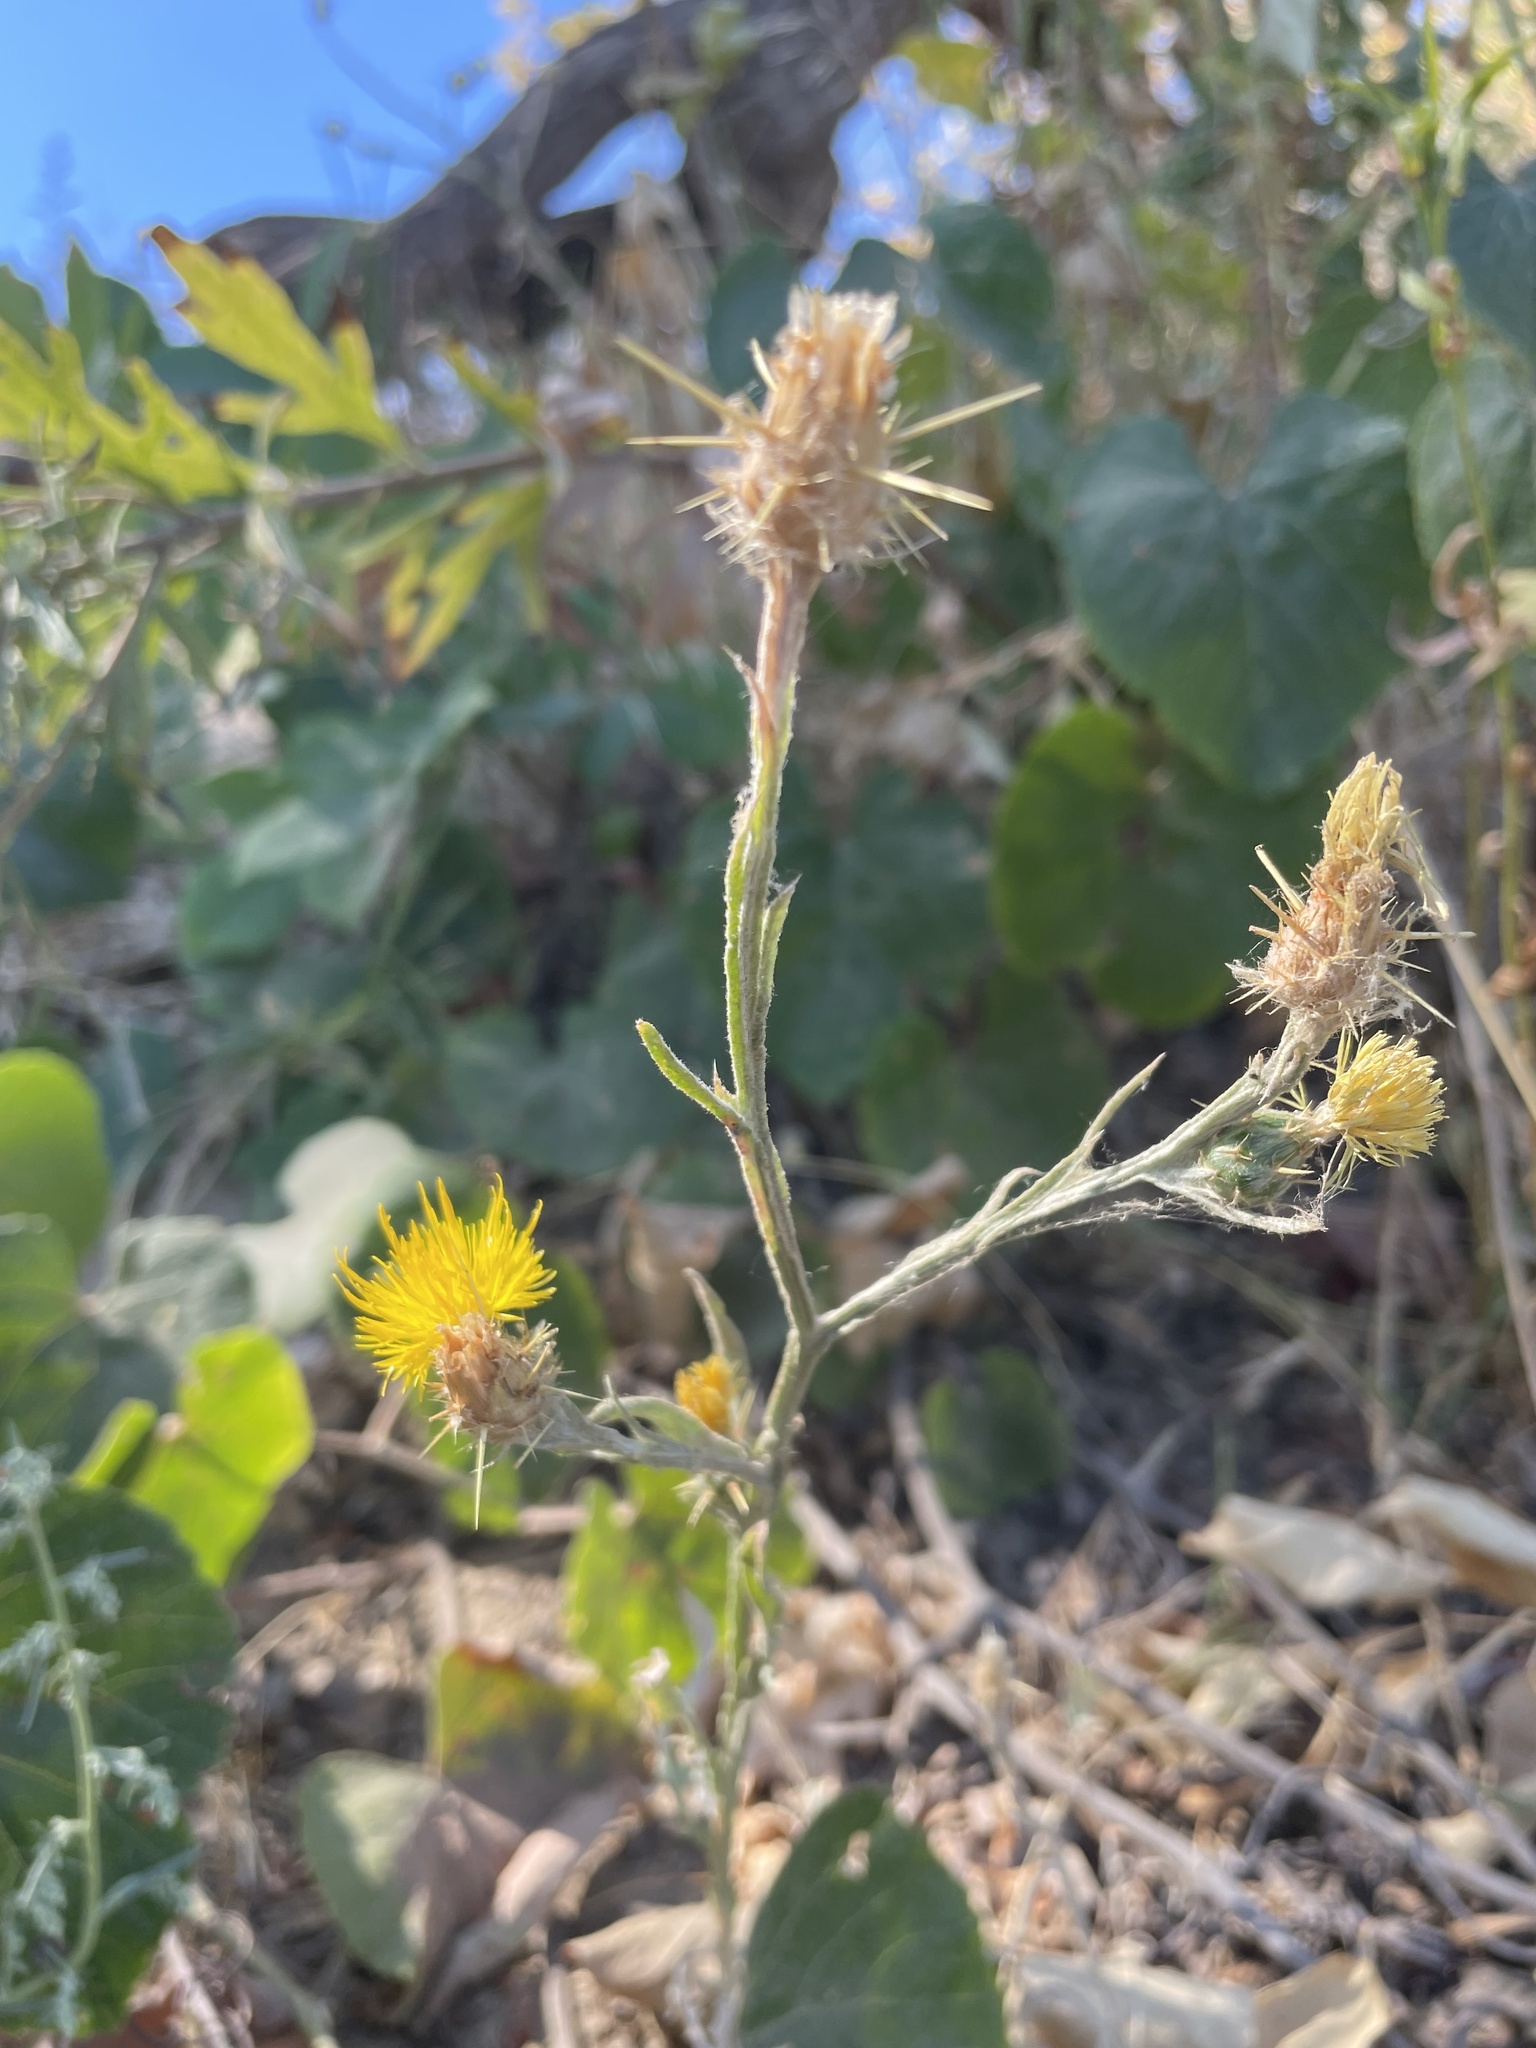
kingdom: Plantae
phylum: Tracheophyta
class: Magnoliopsida
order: Asterales
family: Asteraceae
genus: Centaurea
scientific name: Centaurea solstitialis
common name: Yellow star-thistle
